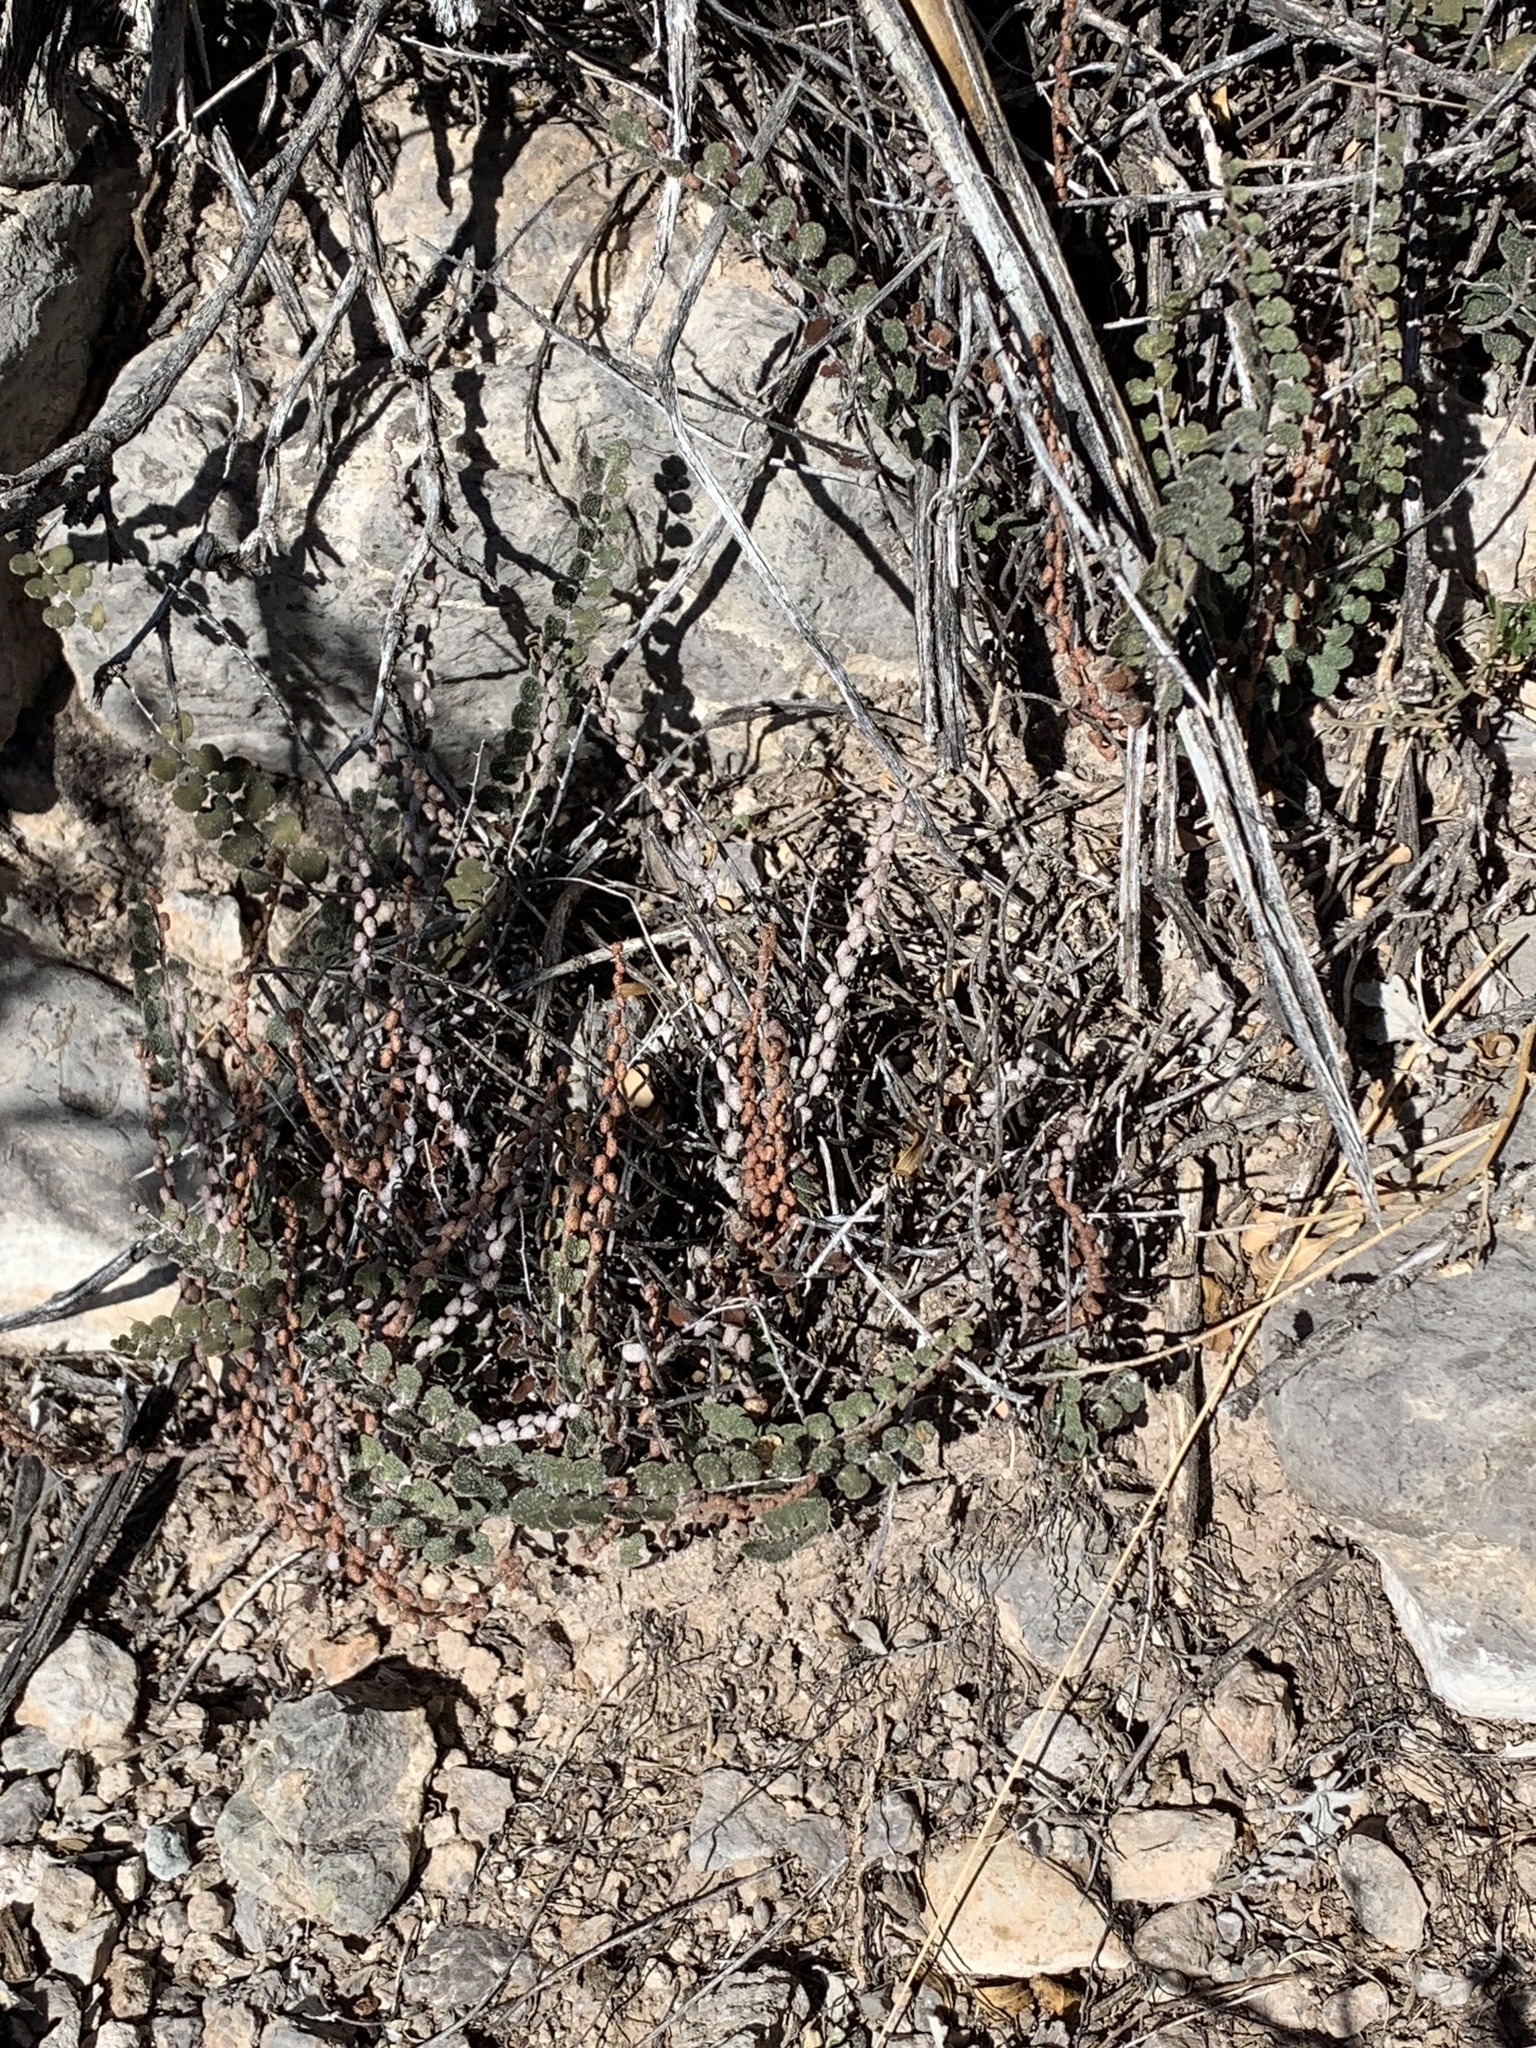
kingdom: Plantae
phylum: Tracheophyta
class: Polypodiopsida
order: Polypodiales
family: Pteridaceae
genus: Astrolepis
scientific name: Astrolepis cochisensis
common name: Scaly cloak fern
